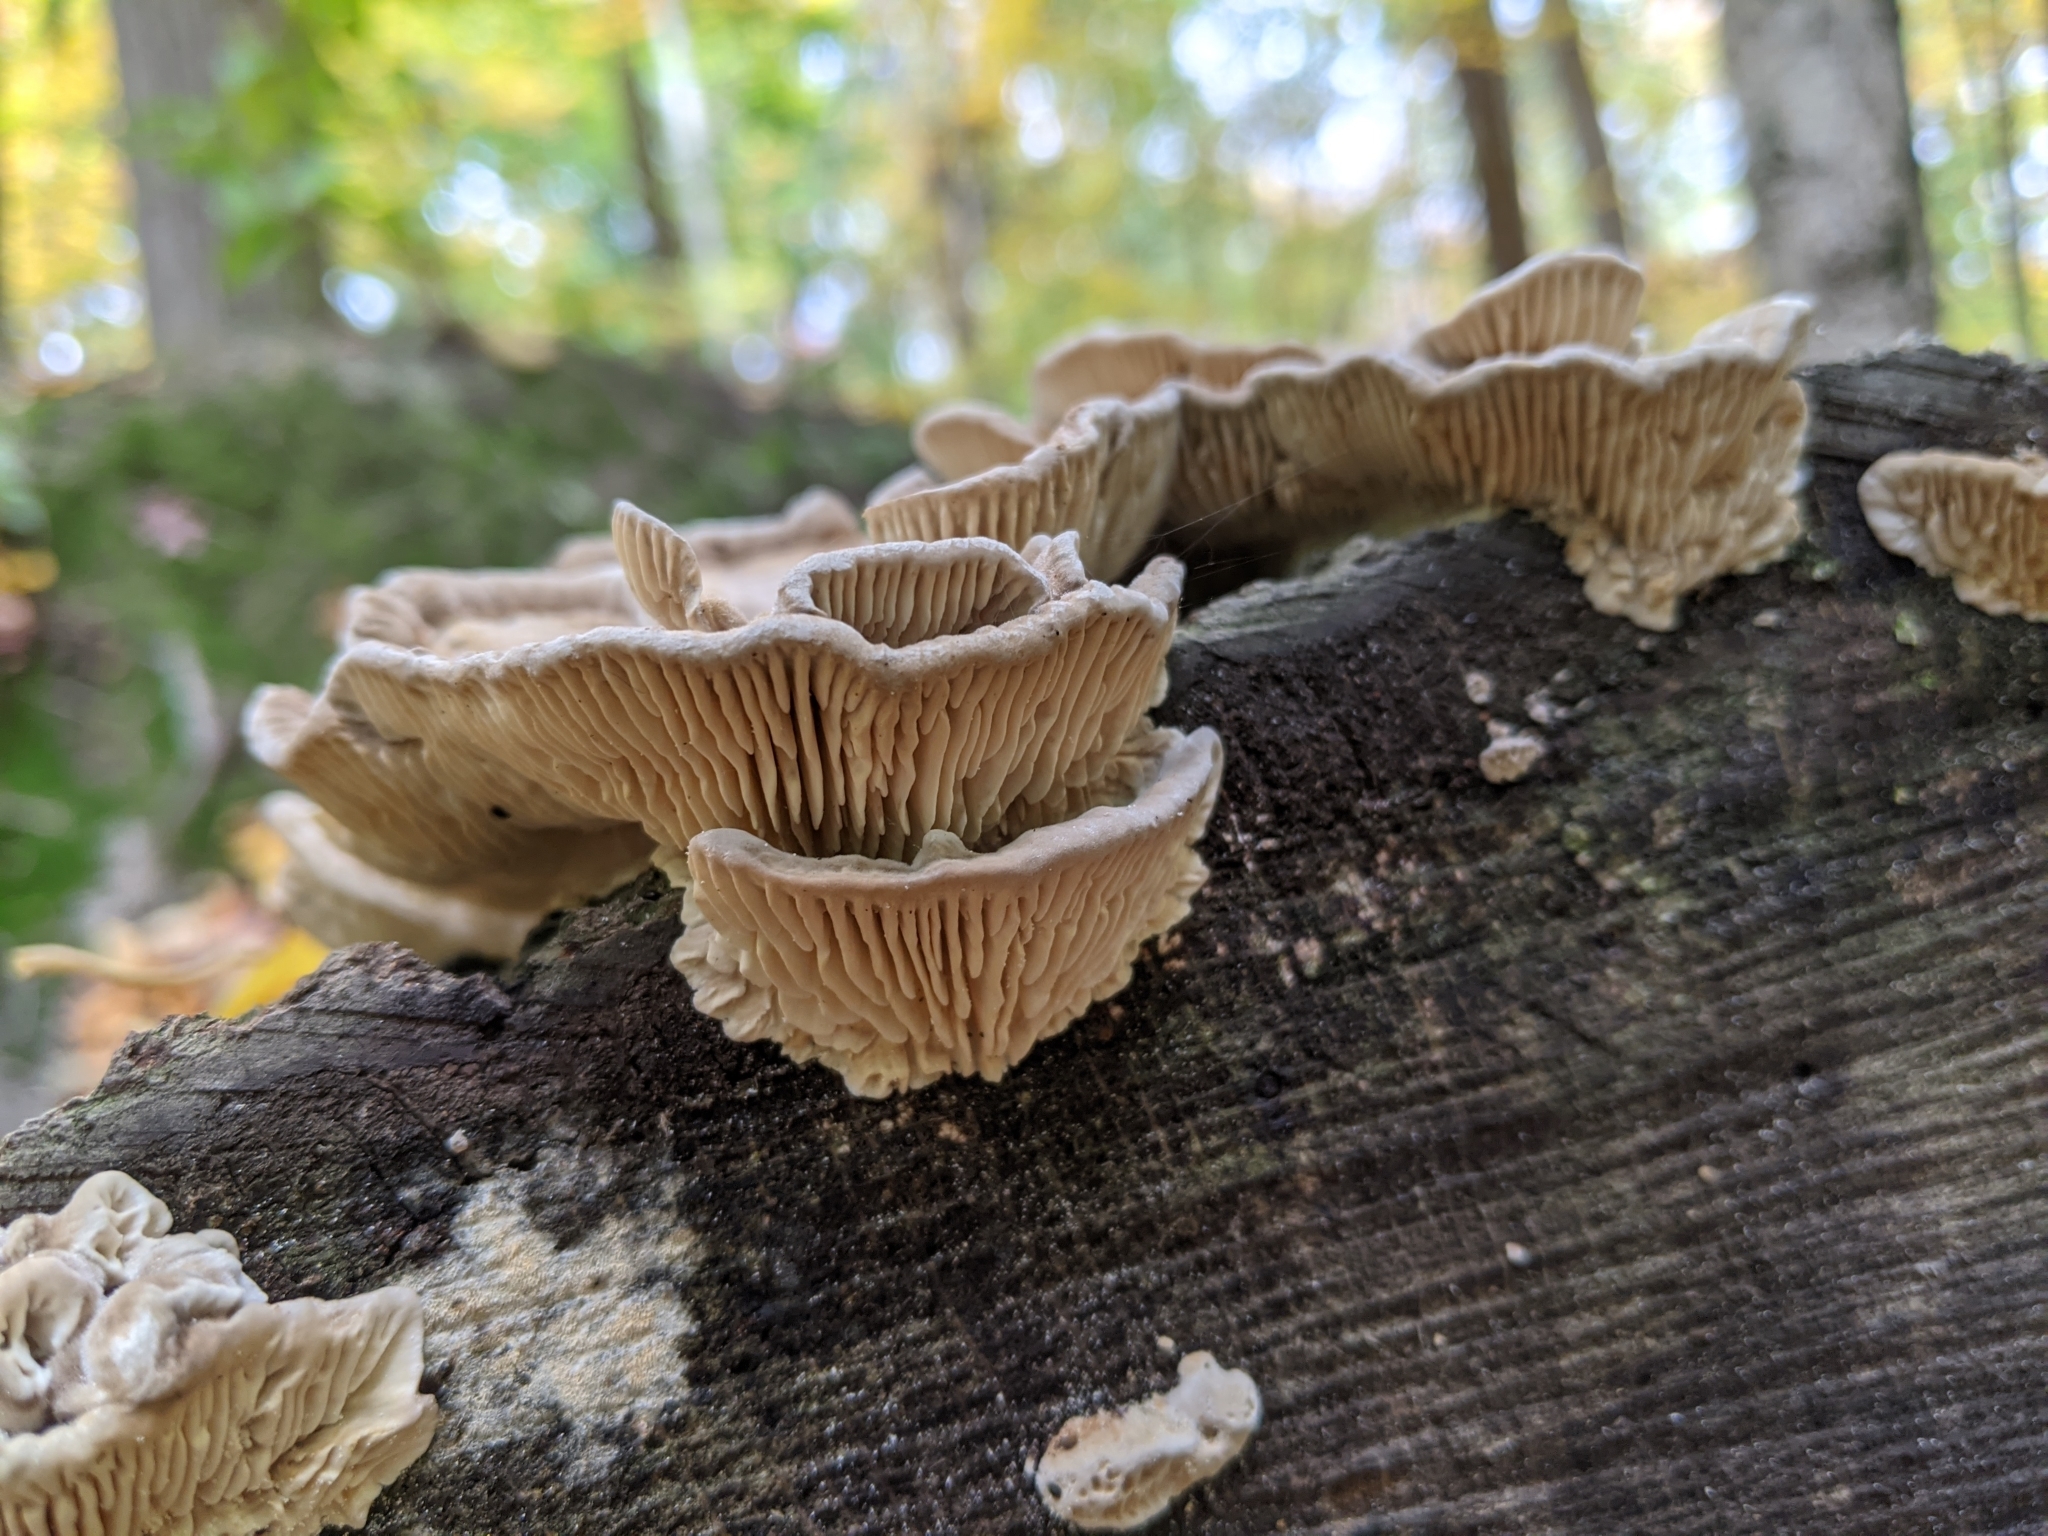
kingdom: Fungi
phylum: Basidiomycota
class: Agaricomycetes
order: Polyporales
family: Polyporaceae
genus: Lenzites
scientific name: Lenzites betulinus
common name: Birch mazegill
